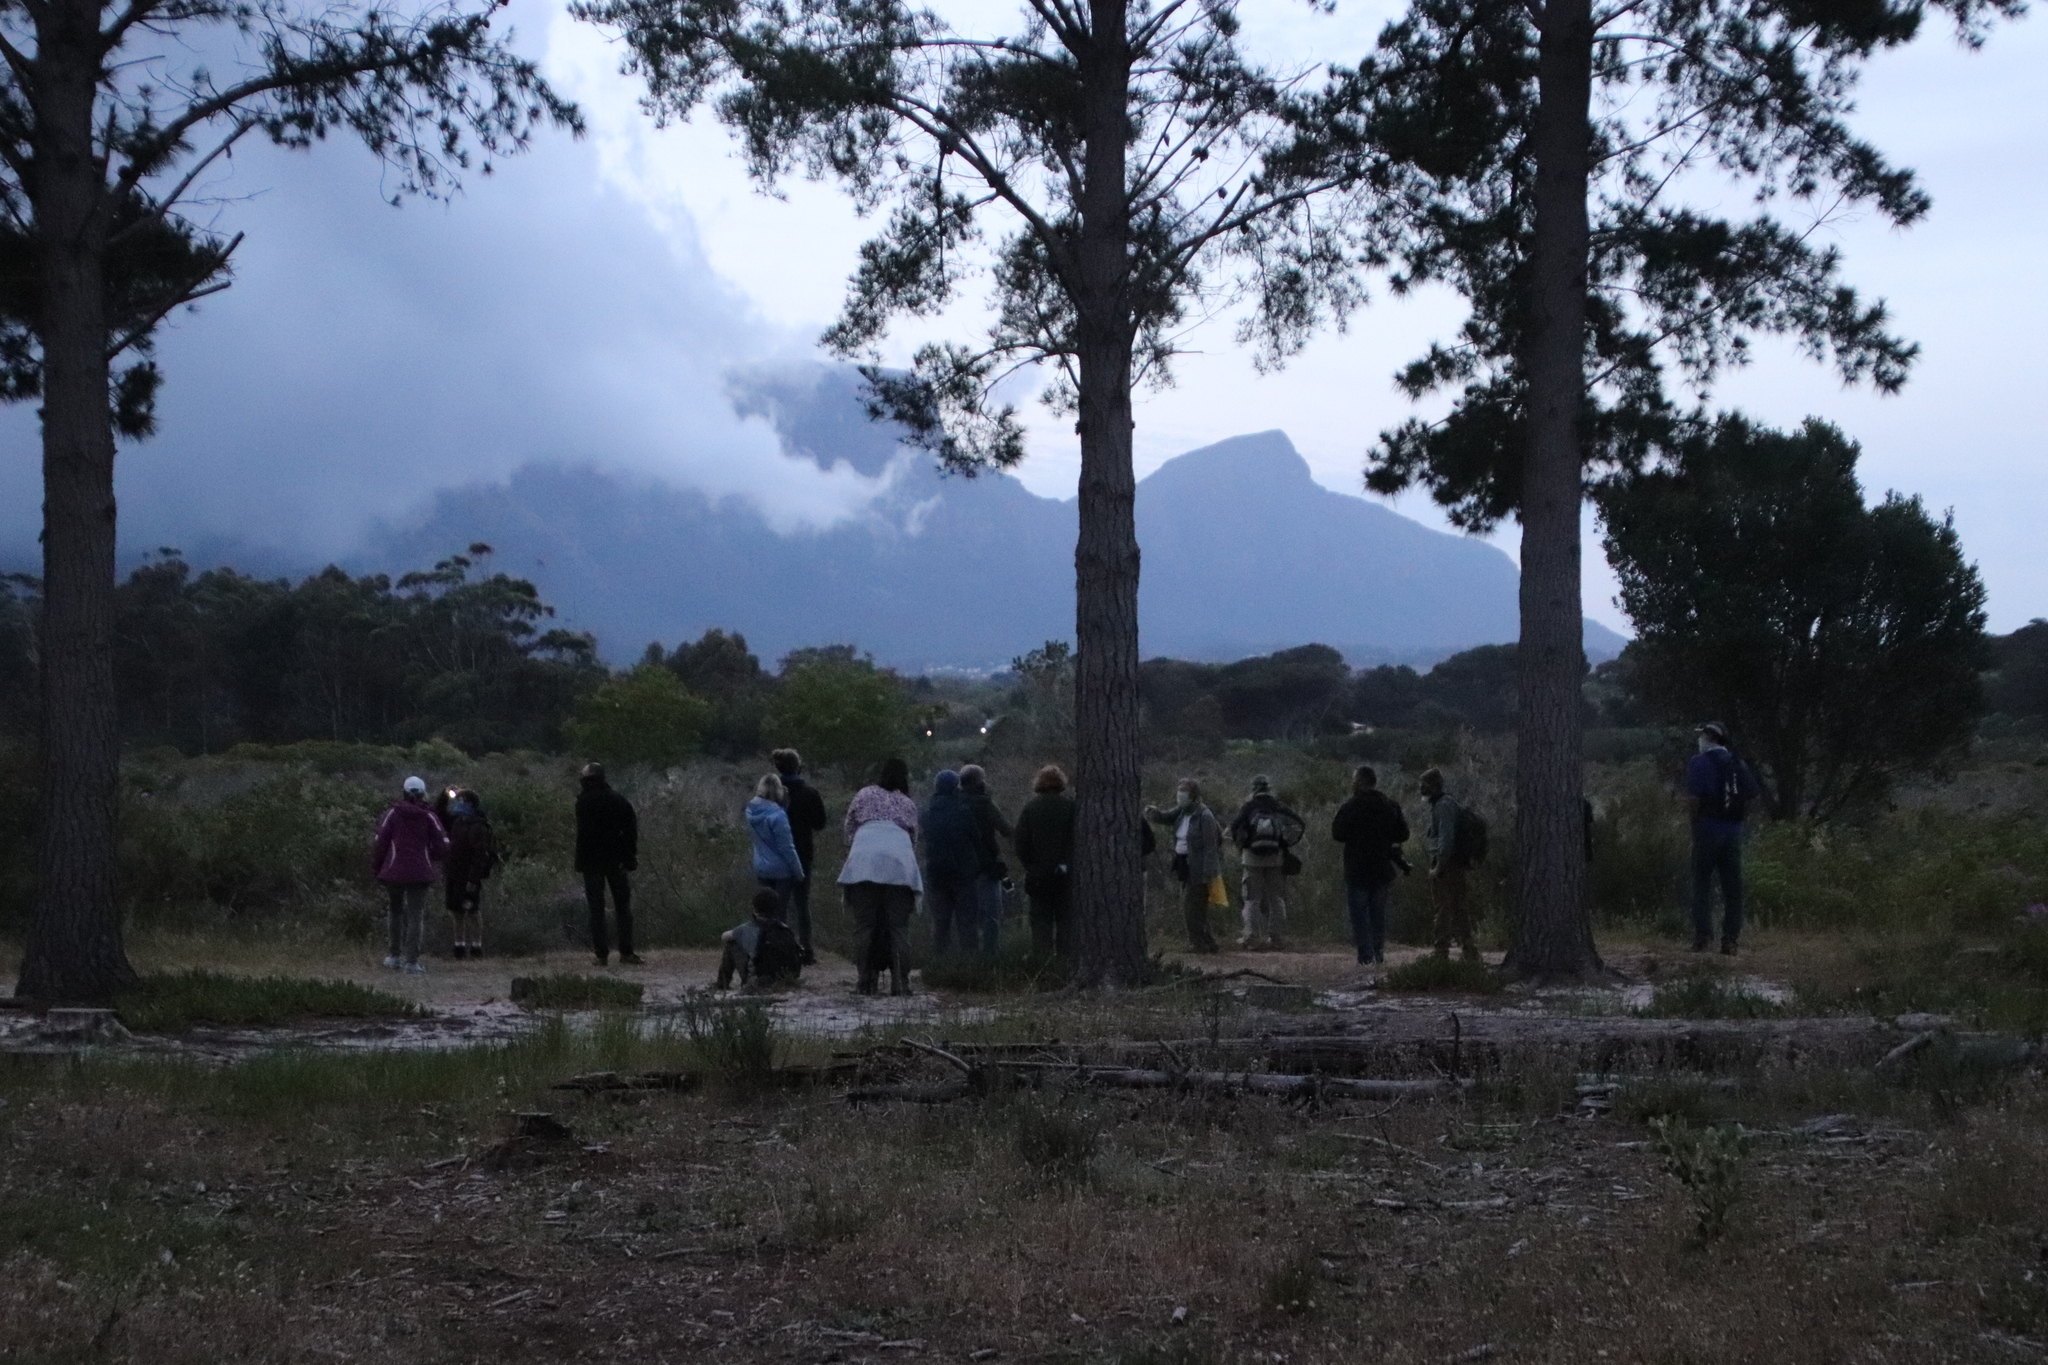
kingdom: Plantae
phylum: Tracheophyta
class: Pinopsida
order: Pinales
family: Pinaceae
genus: Pinus
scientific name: Pinus radiata
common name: Monterey pine
